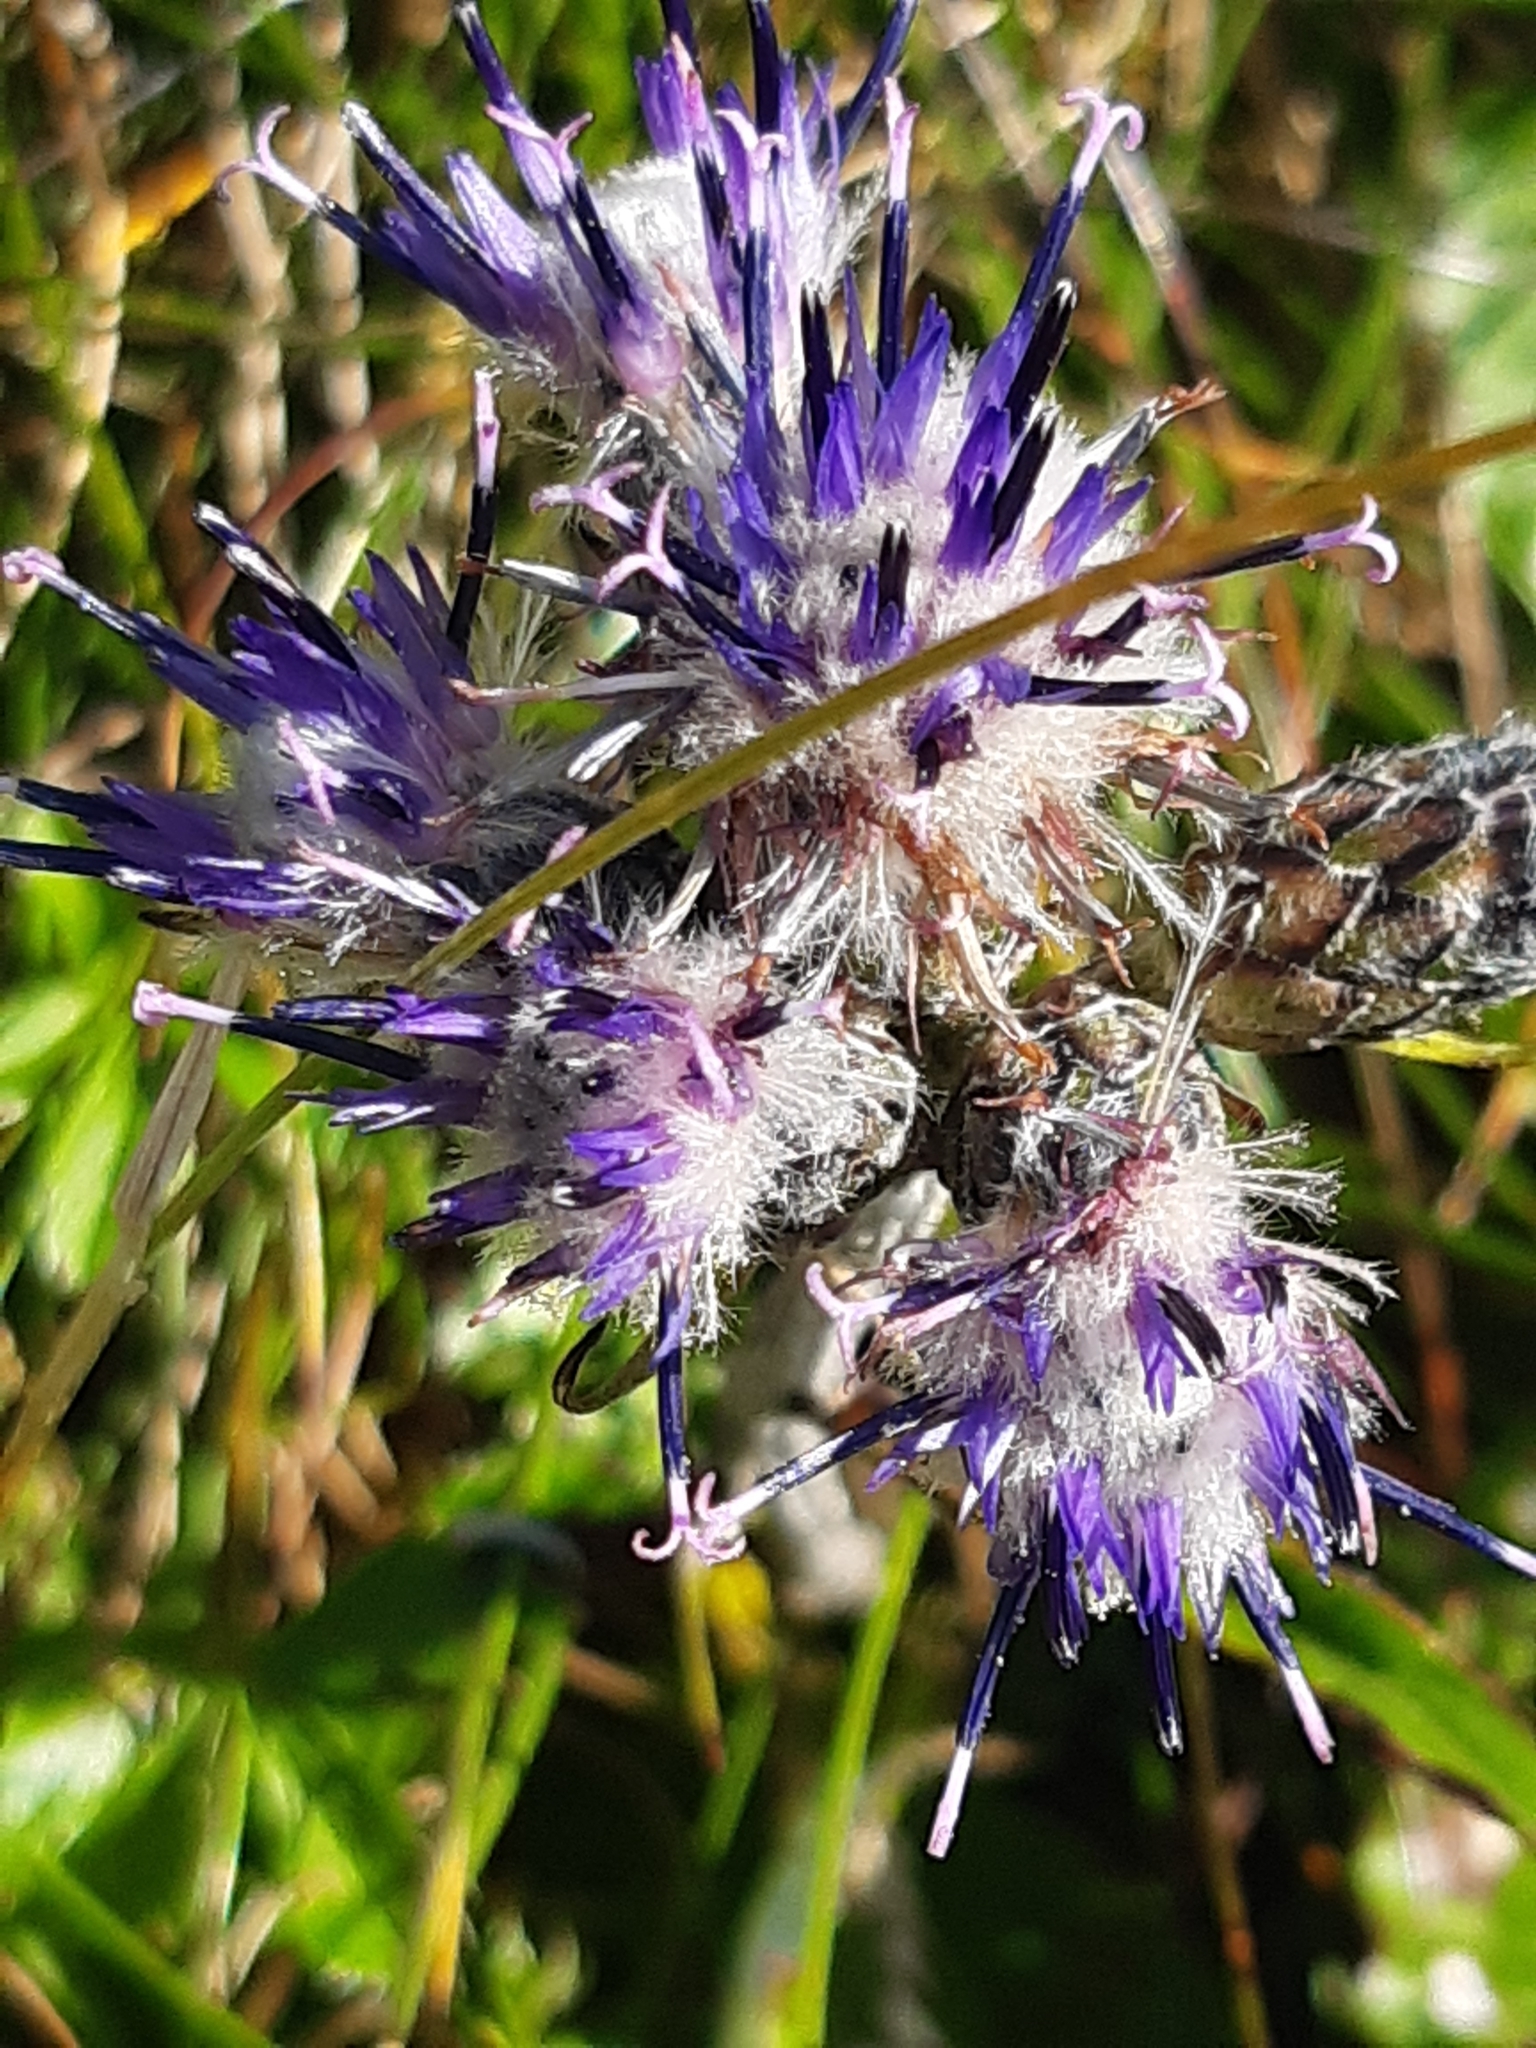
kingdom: Plantae
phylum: Tracheophyta
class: Magnoliopsida
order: Asterales
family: Asteraceae
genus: Saussurea
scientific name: Saussurea discolor
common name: Heart-leaved saussurea
